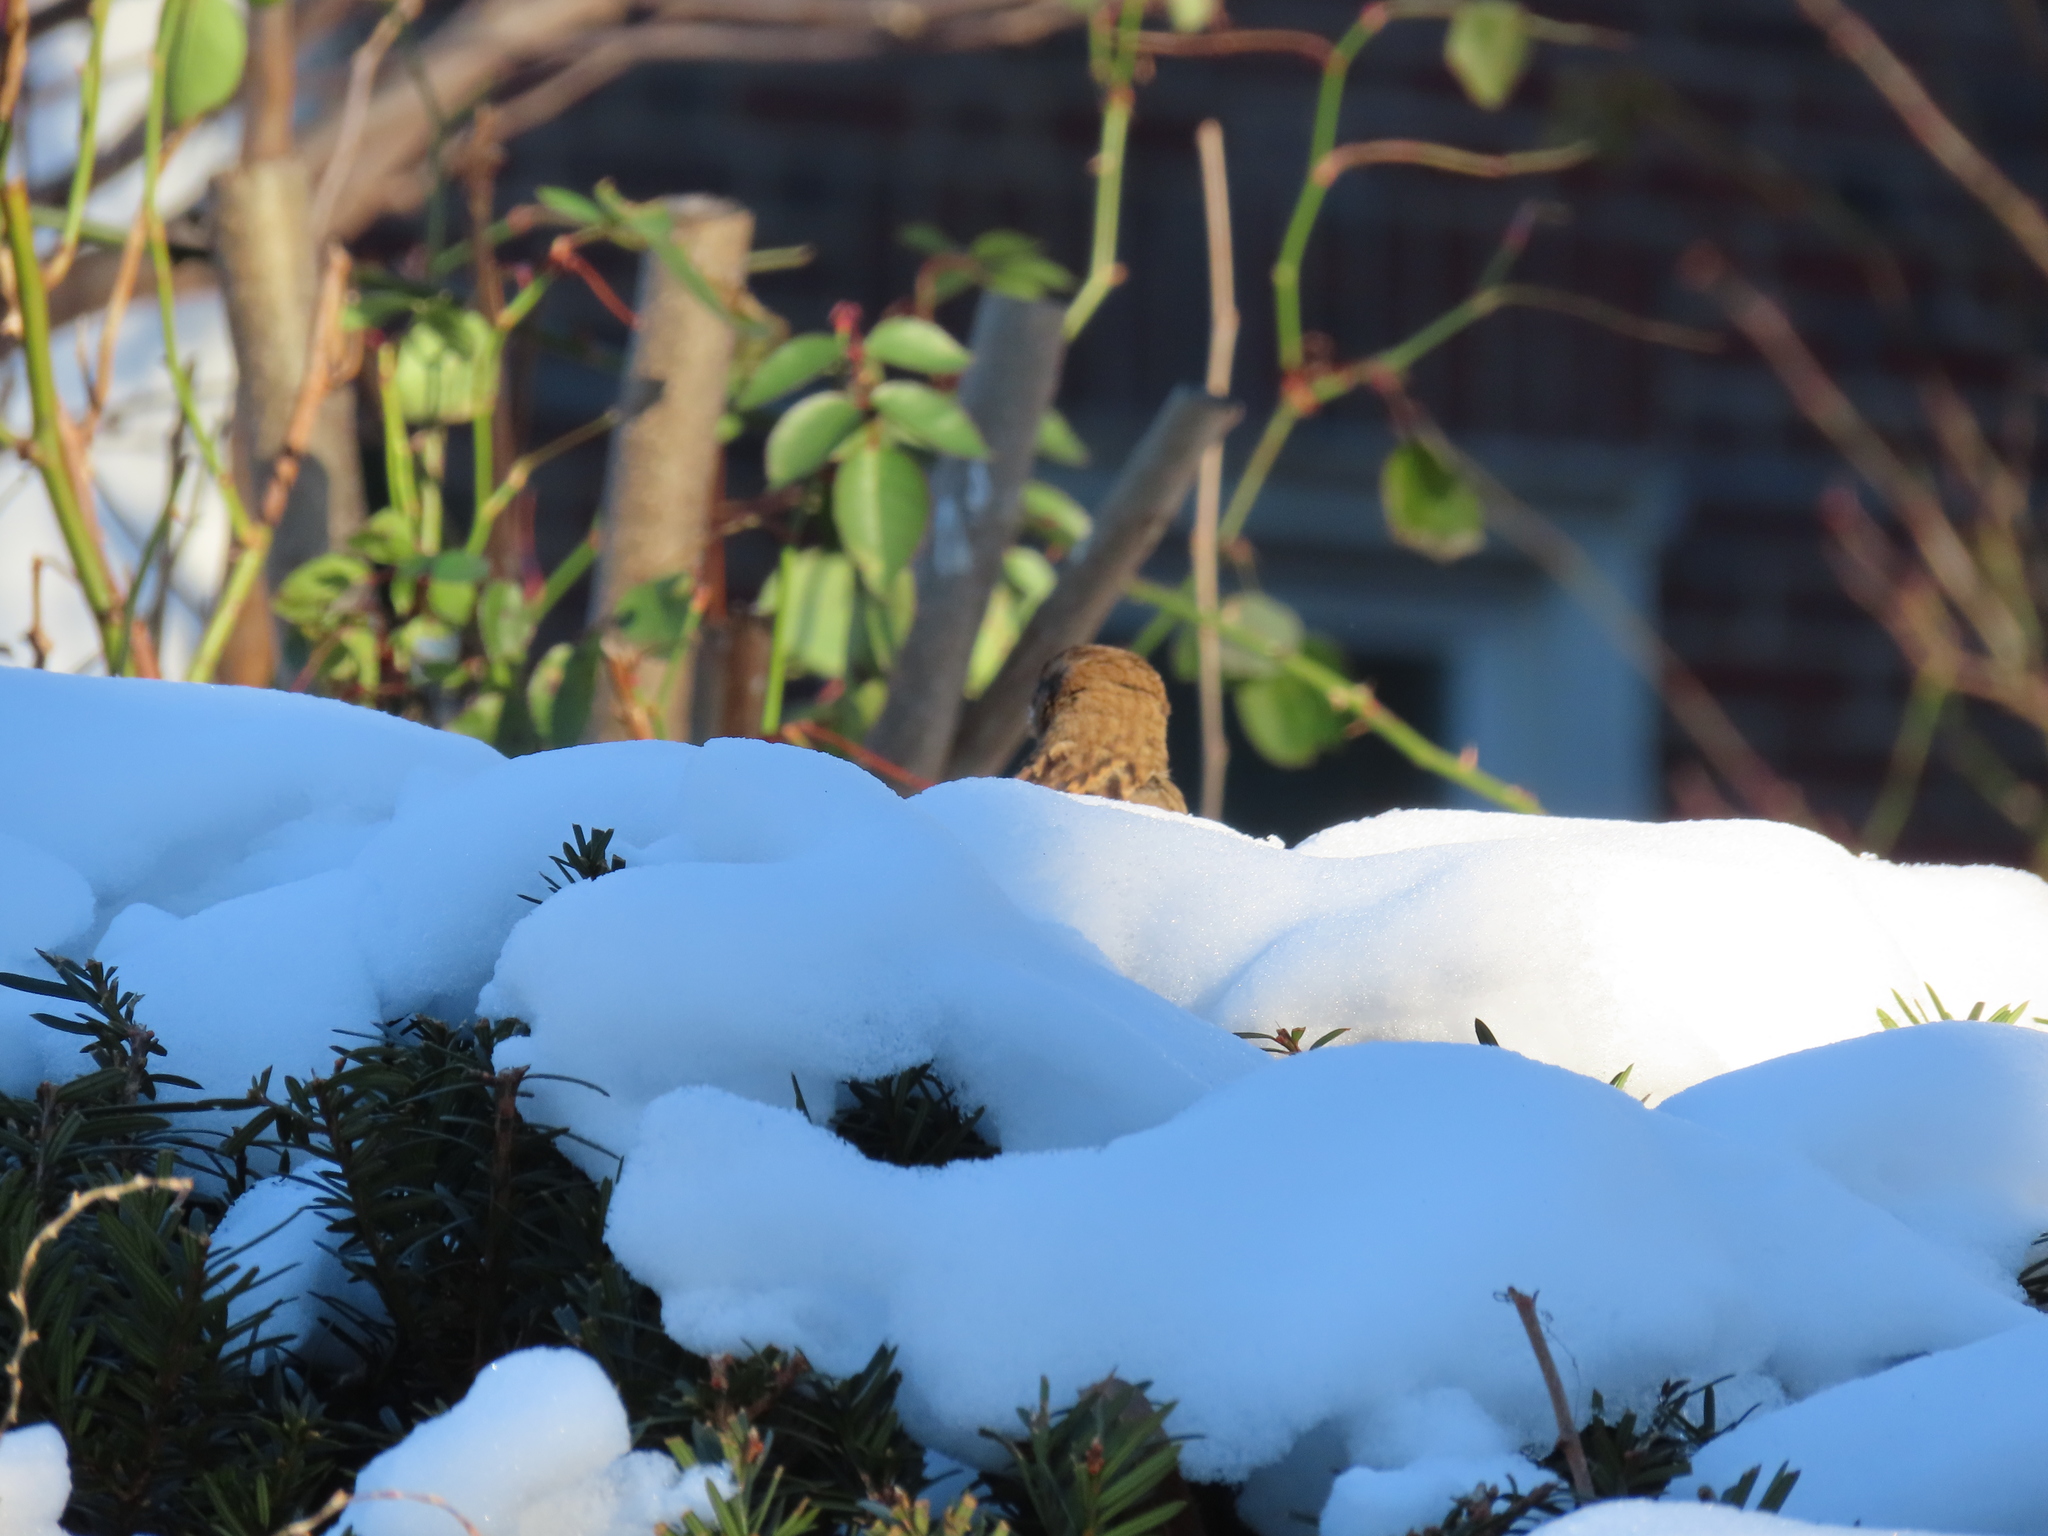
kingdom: Animalia
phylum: Chordata
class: Aves
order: Passeriformes
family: Passeridae
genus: Passer
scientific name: Passer domesticus
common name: House sparrow
